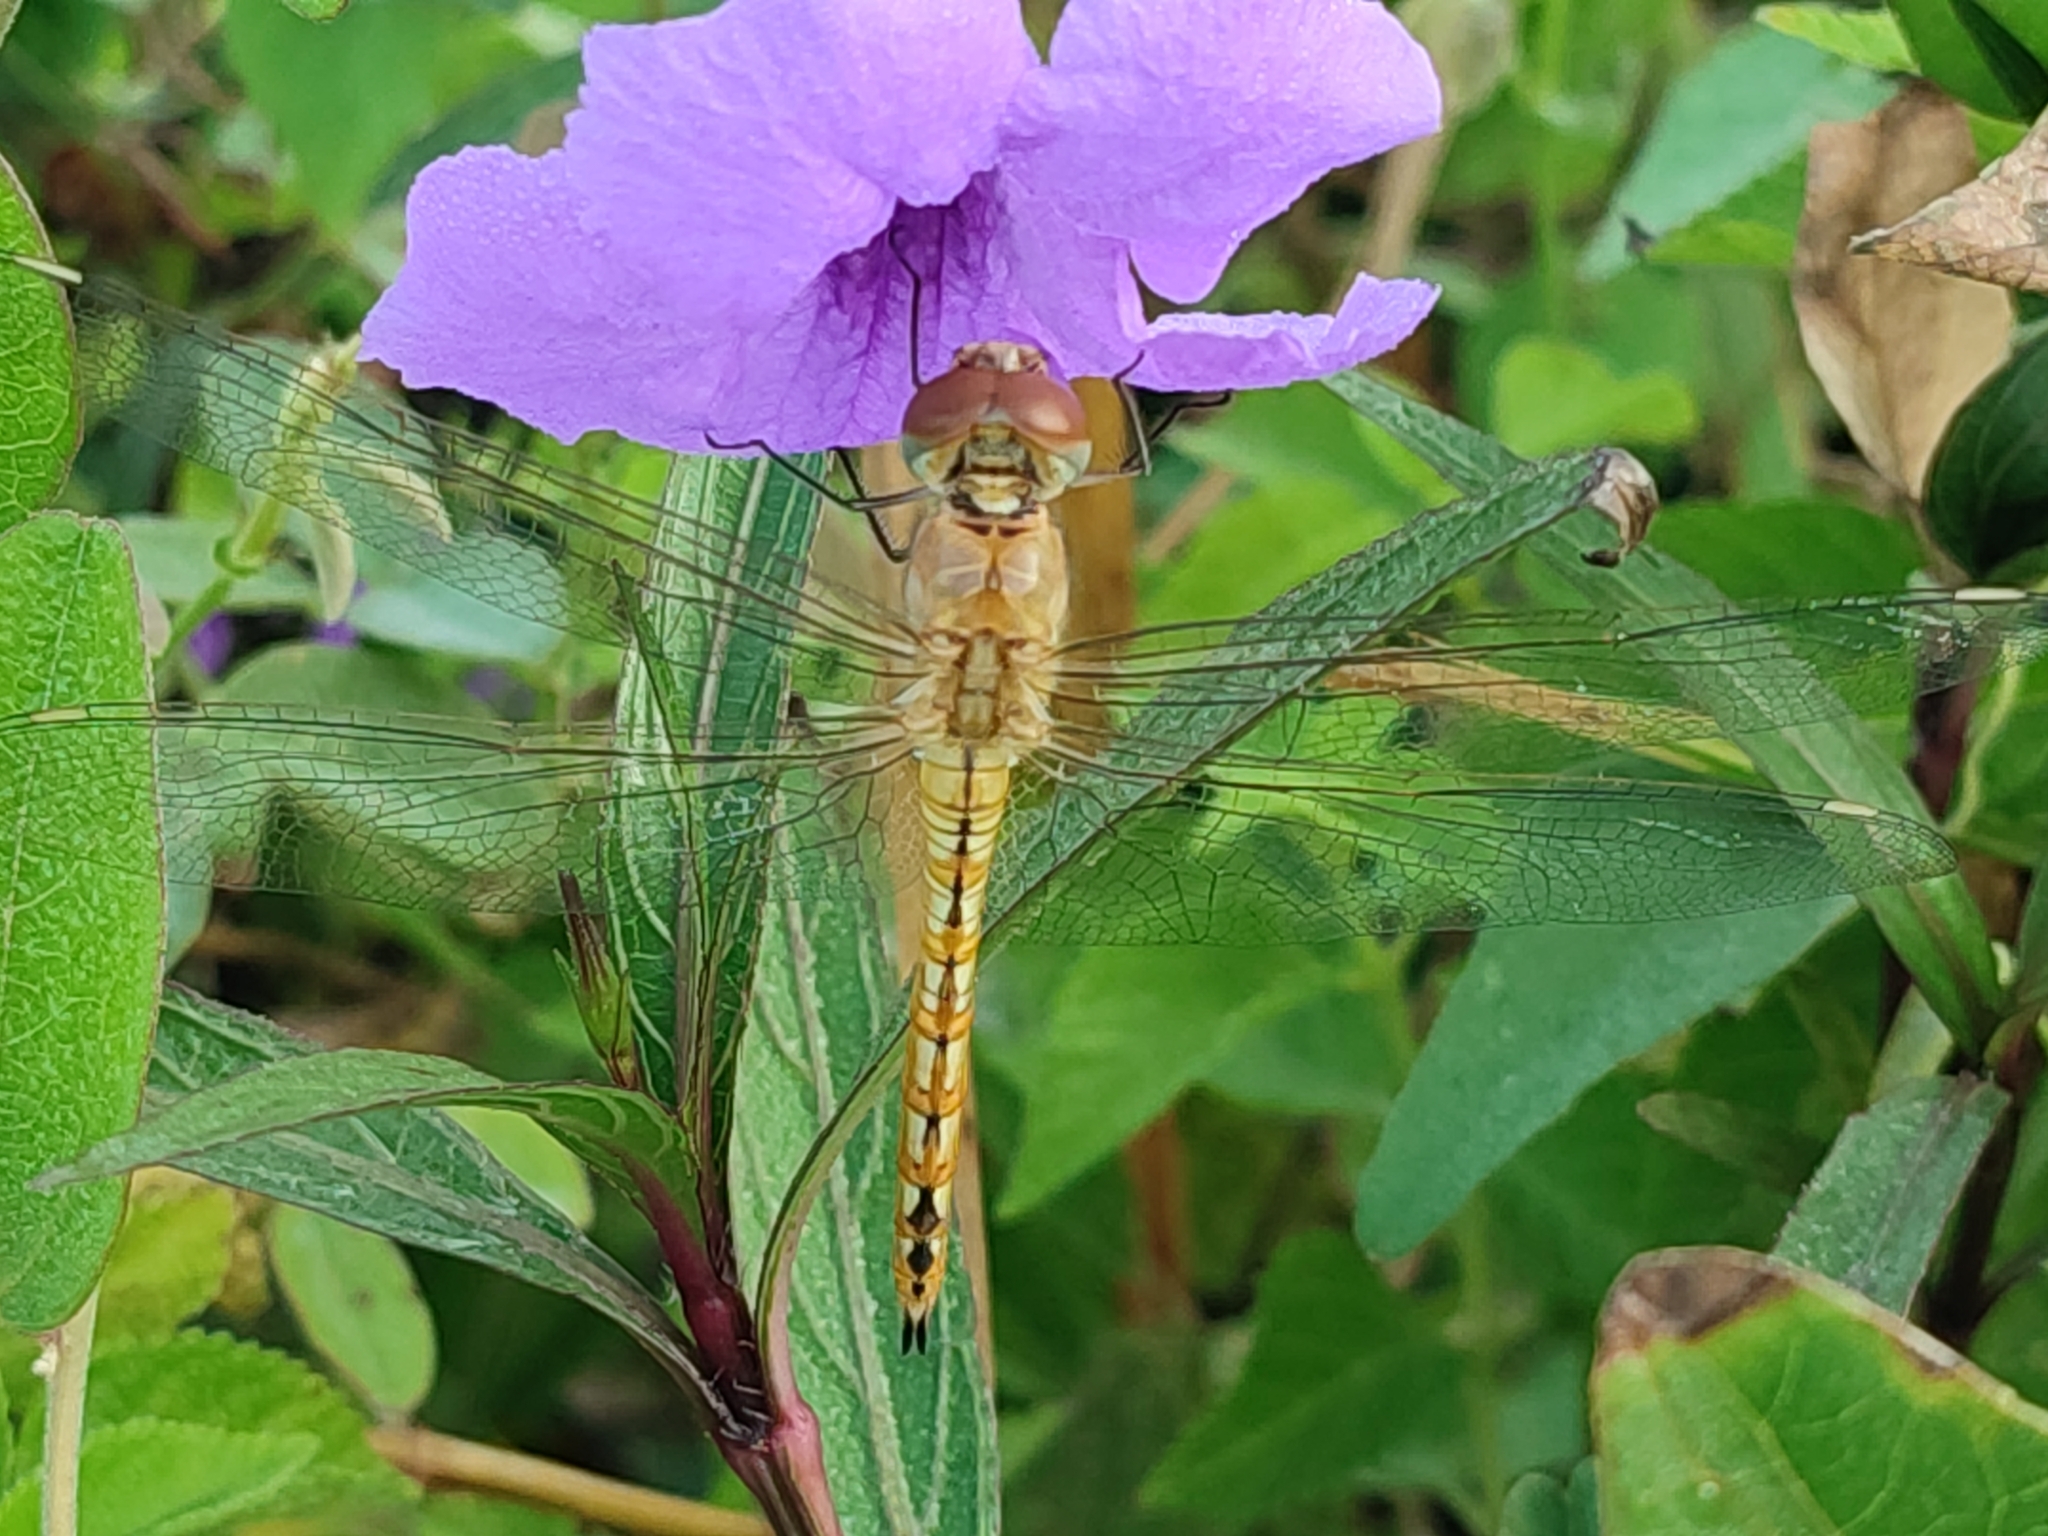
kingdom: Animalia
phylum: Arthropoda
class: Insecta
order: Odonata
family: Libellulidae
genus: Pantala
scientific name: Pantala flavescens
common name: Wandering glider
